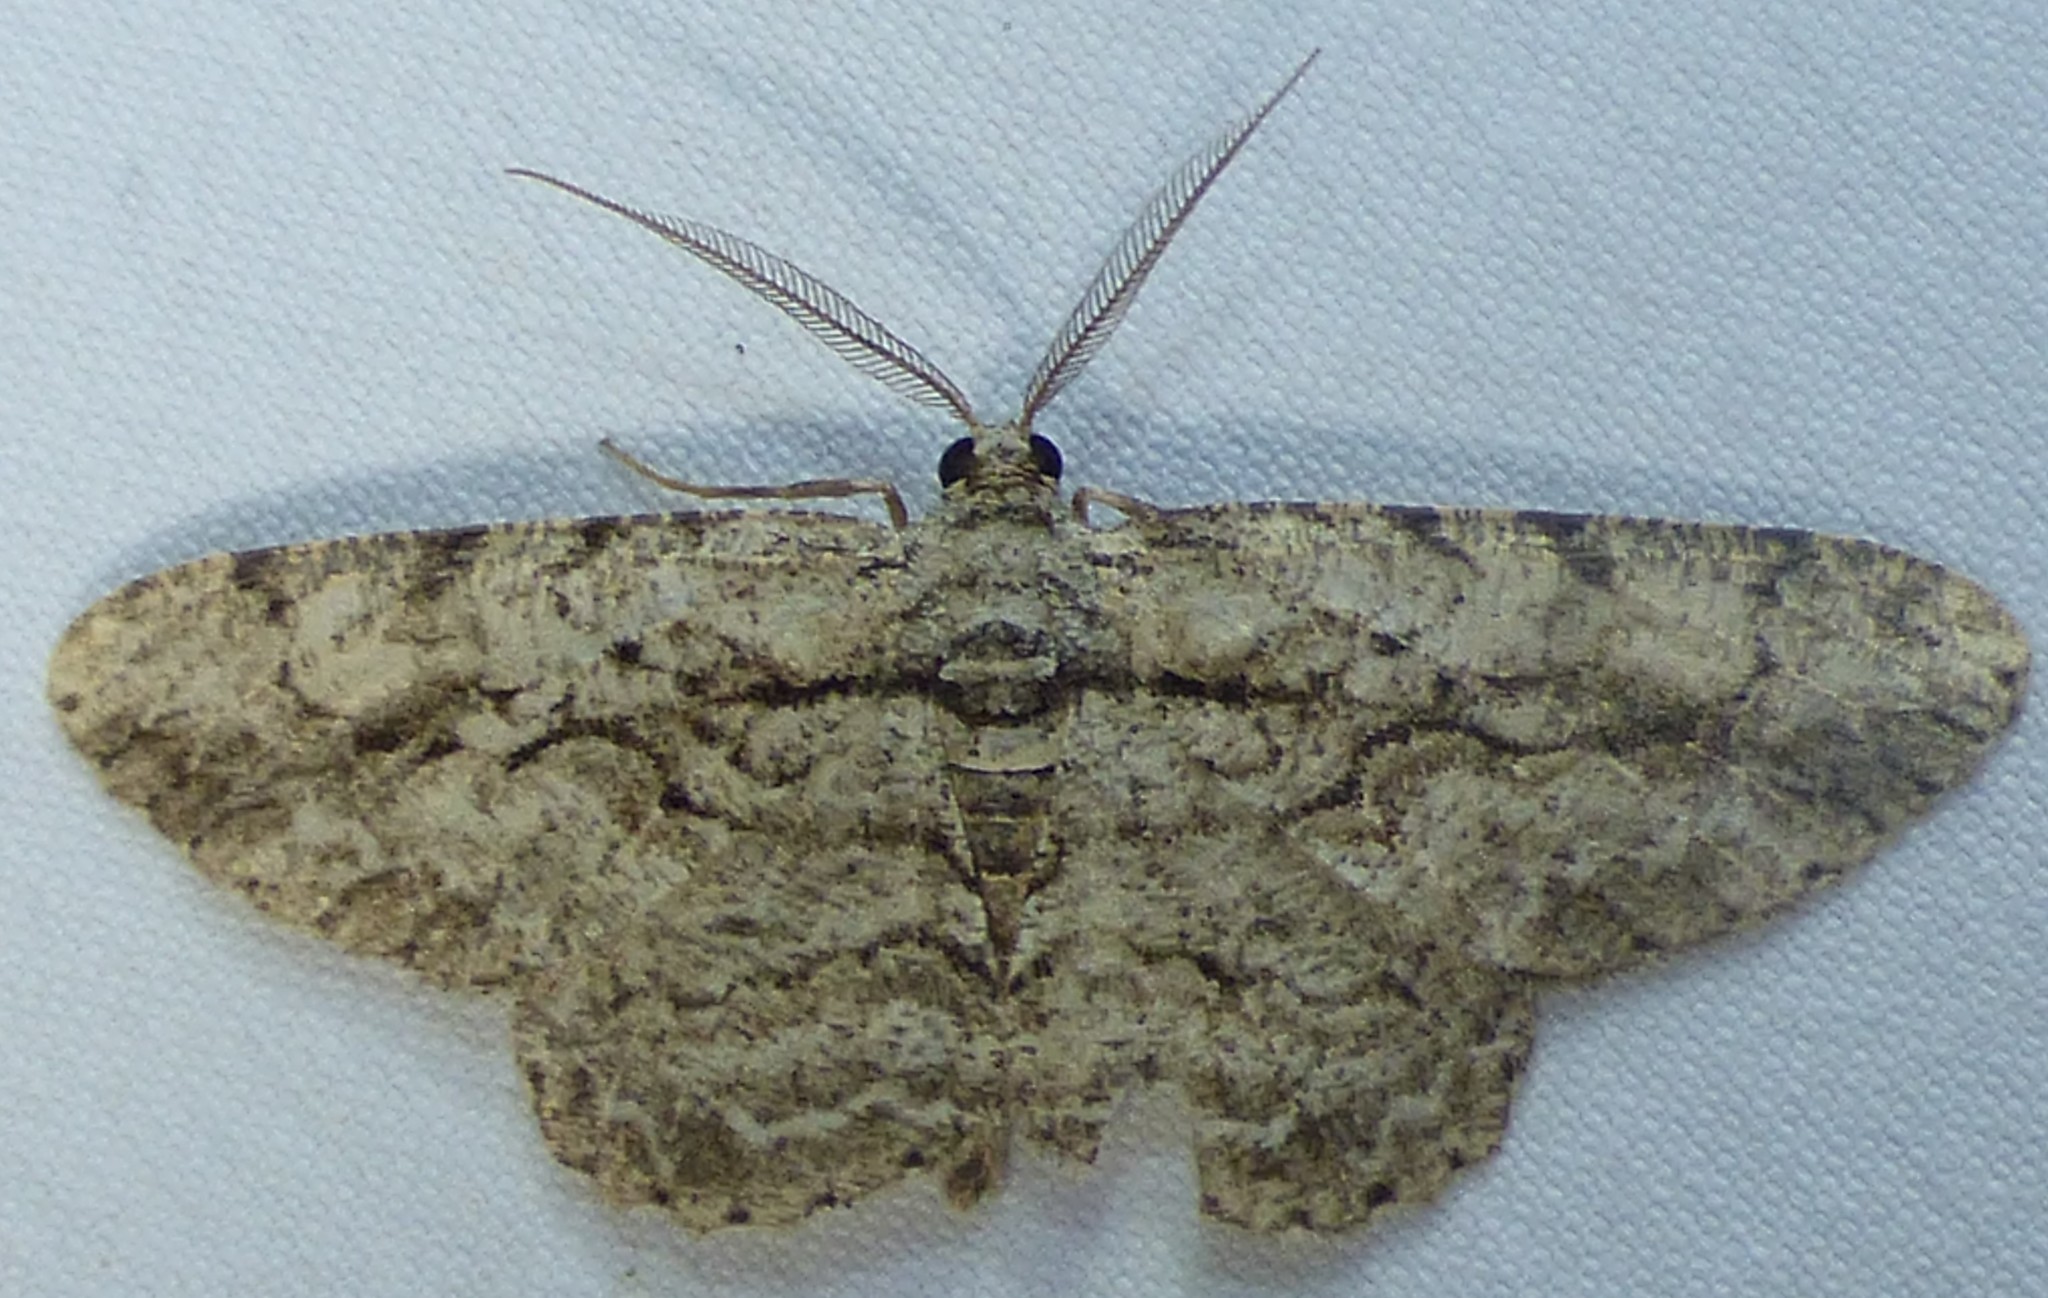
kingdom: Animalia
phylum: Arthropoda
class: Insecta
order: Lepidoptera
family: Geometridae
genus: Anavitrinella
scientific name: Anavitrinella pampinaria
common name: Common gray
